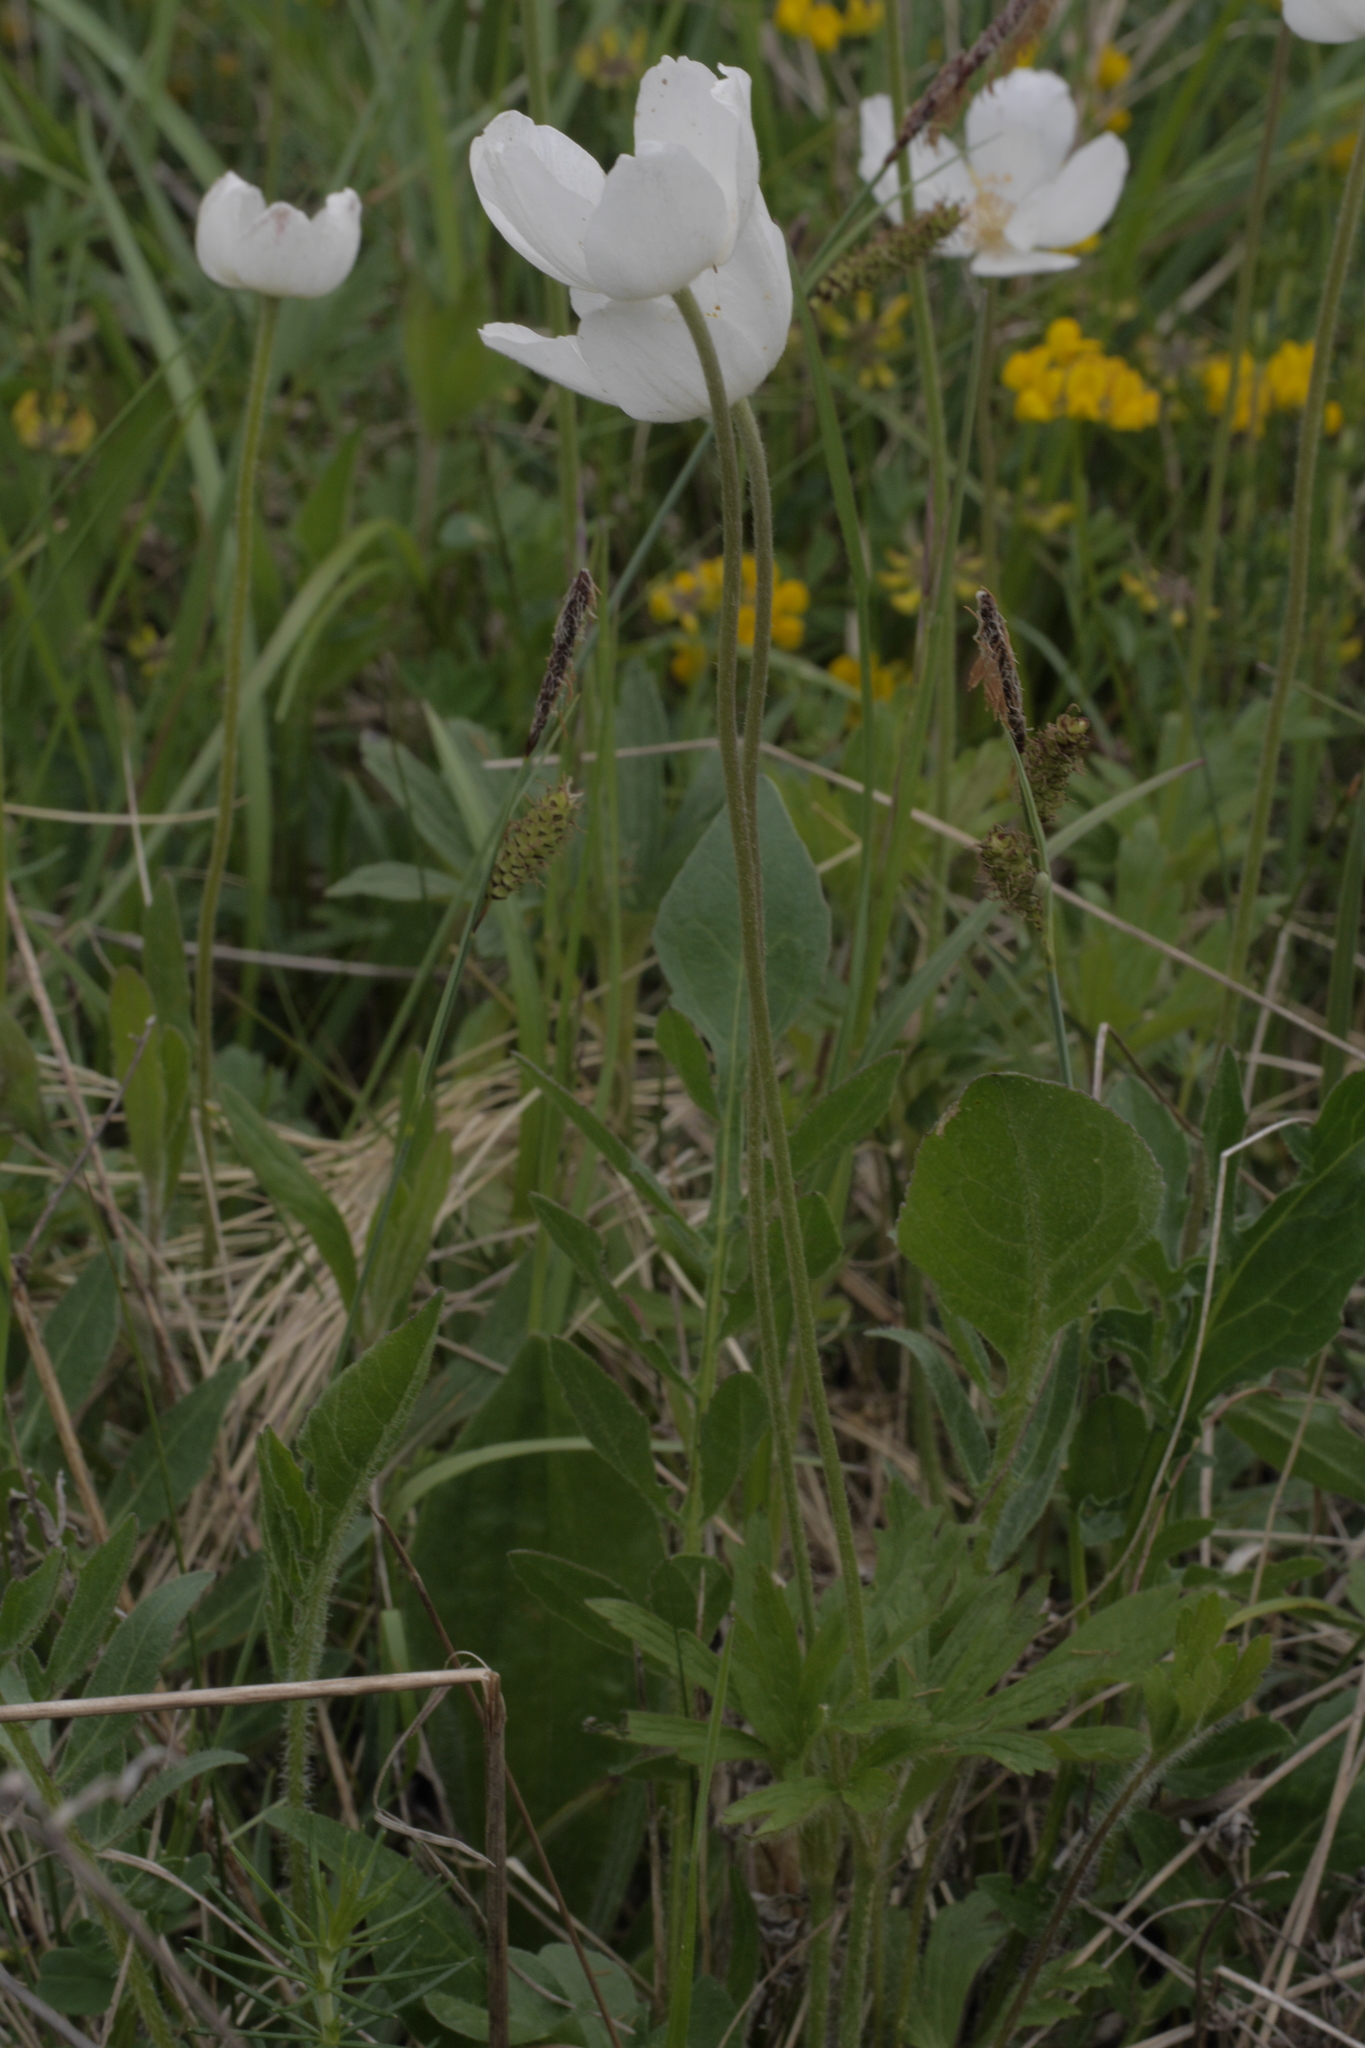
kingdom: Plantae
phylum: Tracheophyta
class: Magnoliopsida
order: Ranunculales
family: Ranunculaceae
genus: Anemone
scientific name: Anemone sylvestris
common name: Snowdrop anemone
